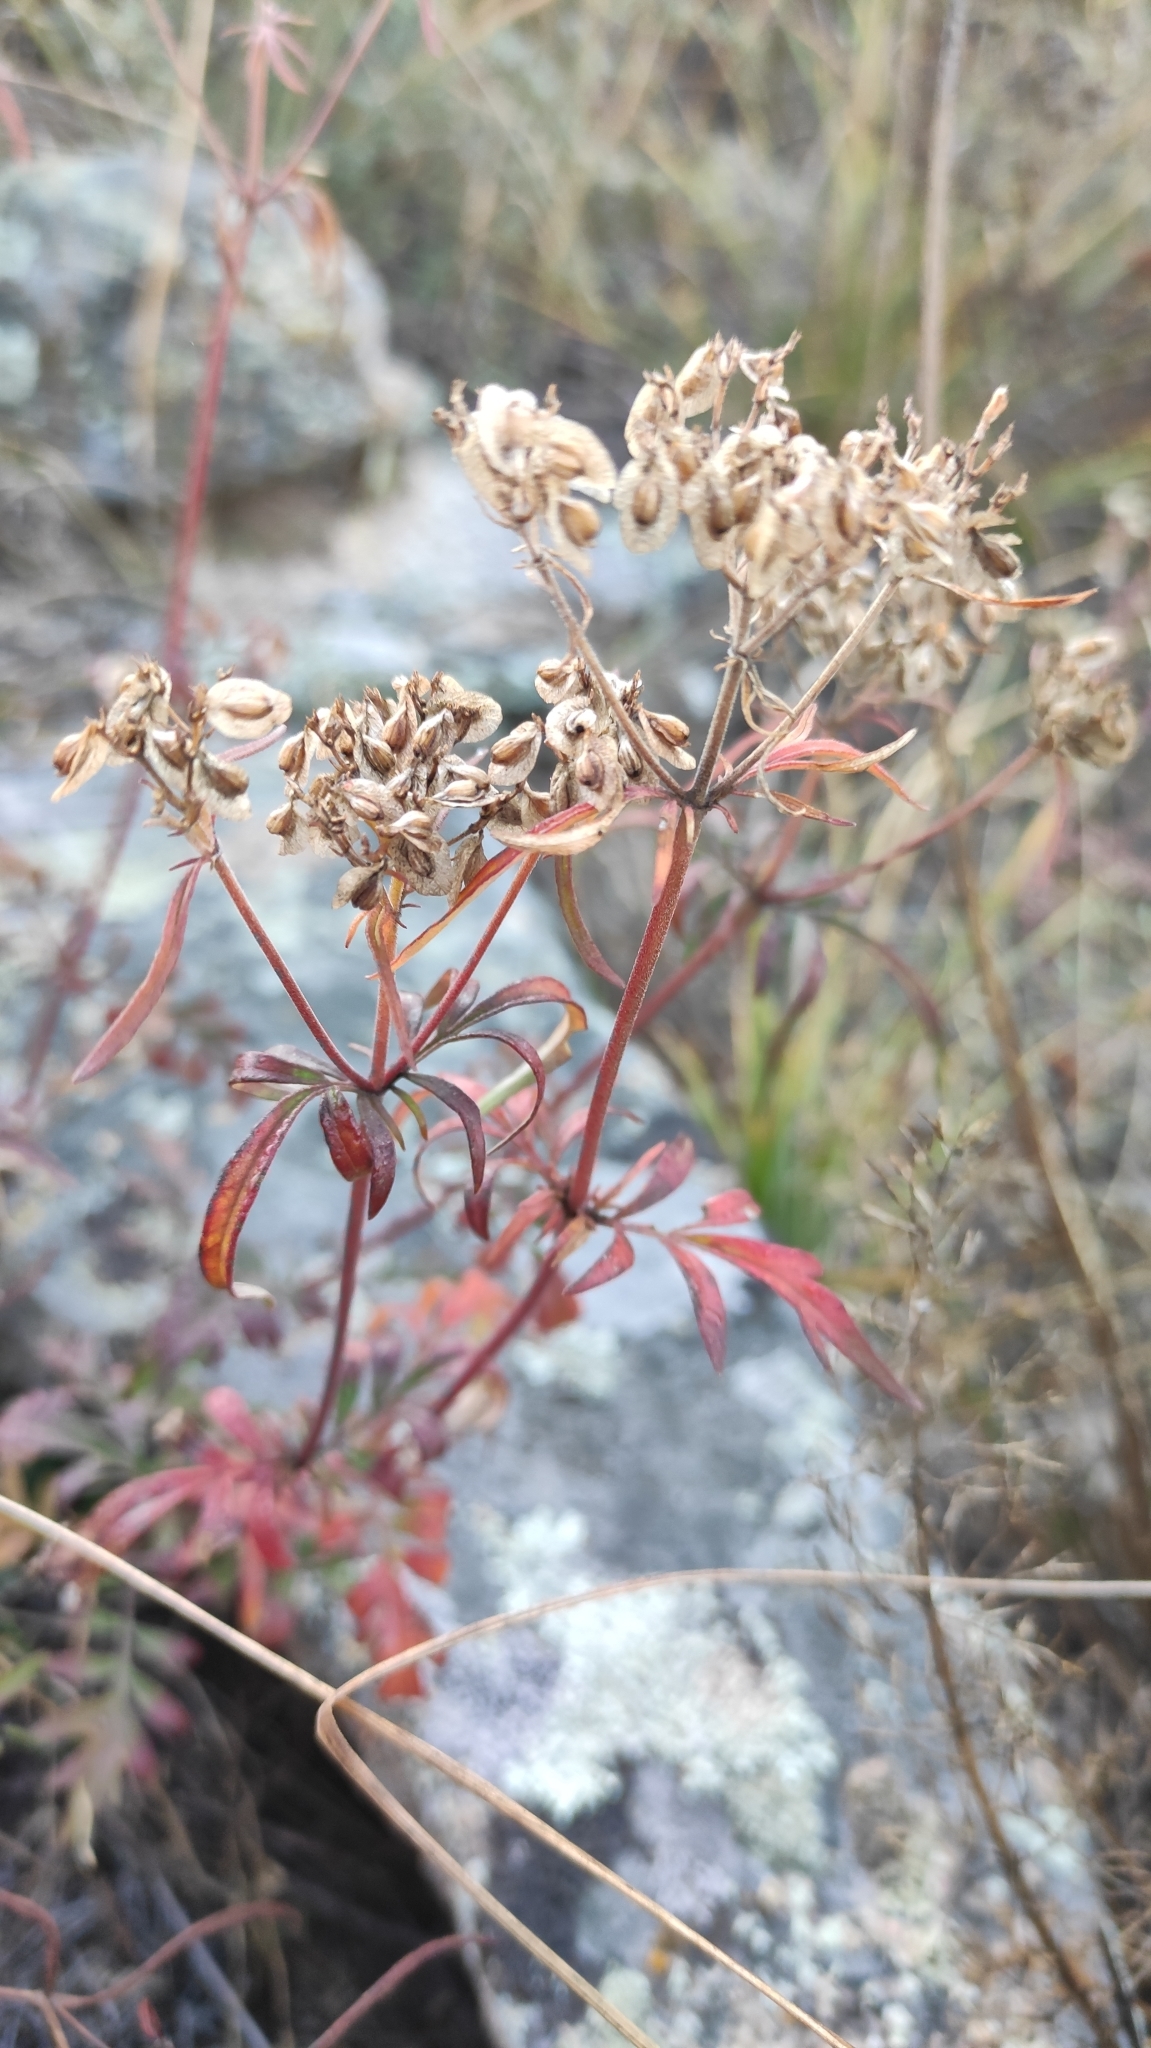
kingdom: Plantae
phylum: Tracheophyta
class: Magnoliopsida
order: Dipsacales
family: Caprifoliaceae
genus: Patrinia
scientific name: Patrinia rupestris
